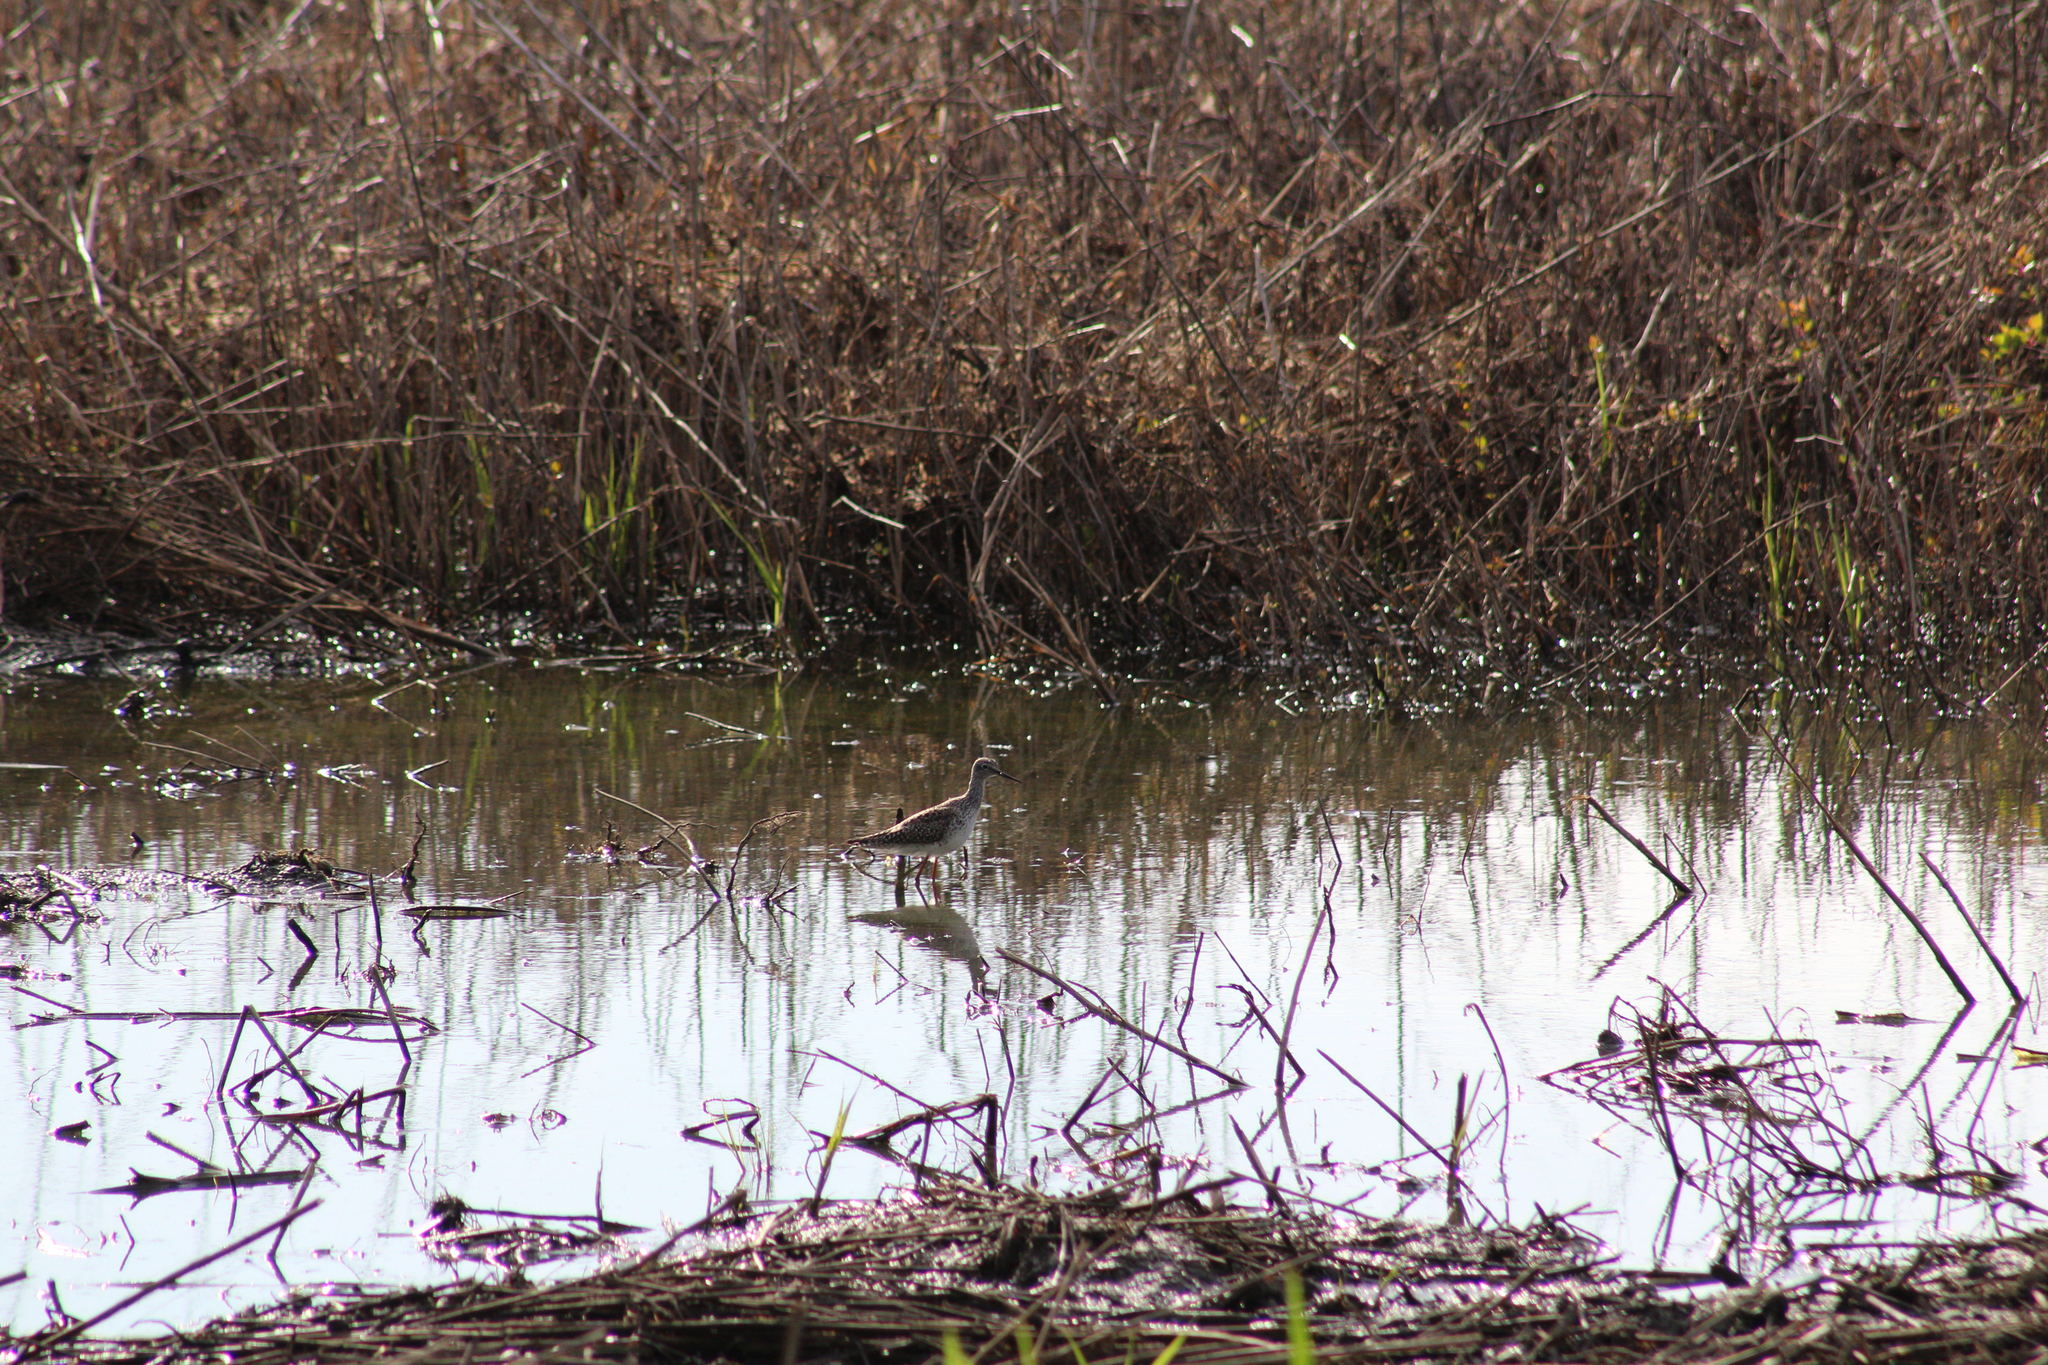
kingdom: Animalia
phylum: Chordata
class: Aves
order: Charadriiformes
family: Scolopacidae
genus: Tringa
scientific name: Tringa flavipes
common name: Lesser yellowlegs
